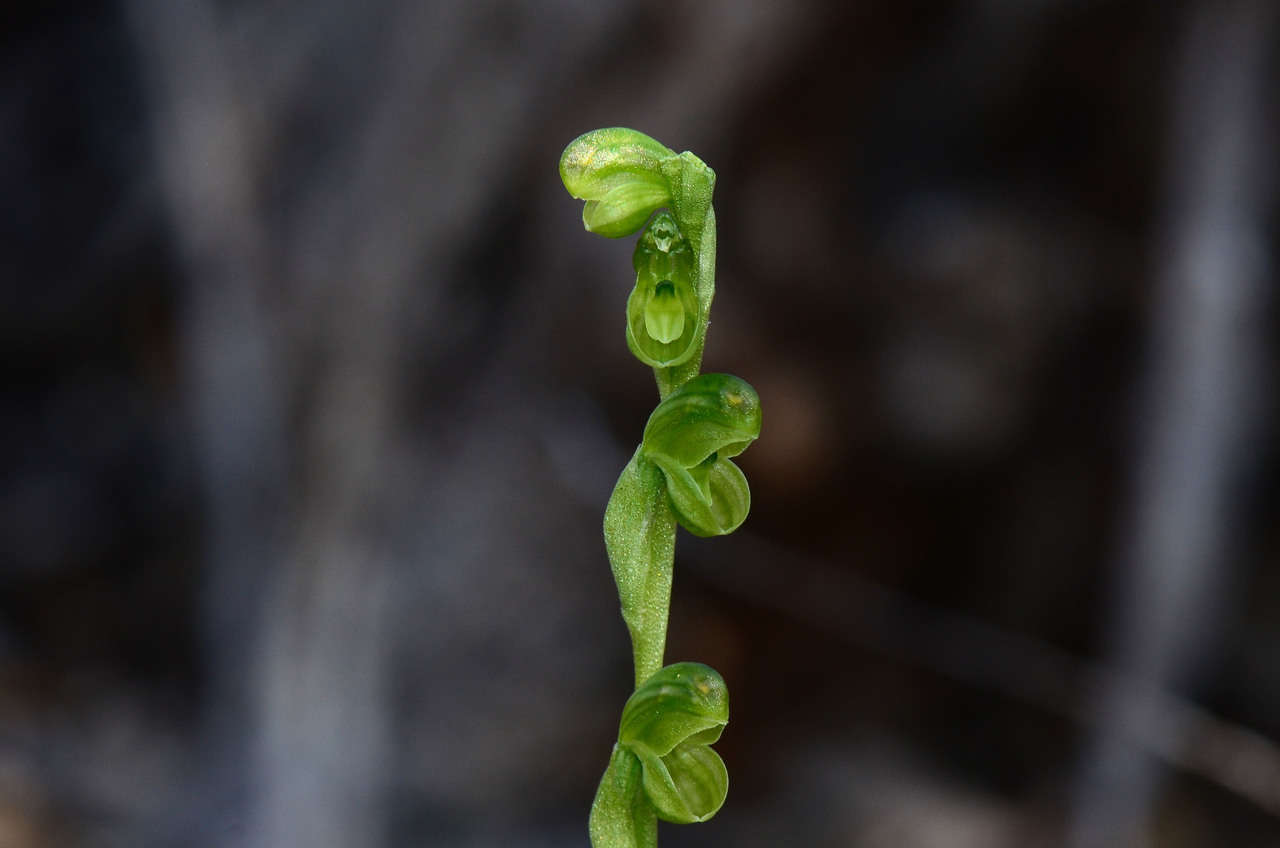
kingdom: Plantae
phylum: Tracheophyta
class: Liliopsida
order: Asparagales
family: Orchidaceae
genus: Pterostylis
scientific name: Pterostylis mutica
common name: Midget greenhood
